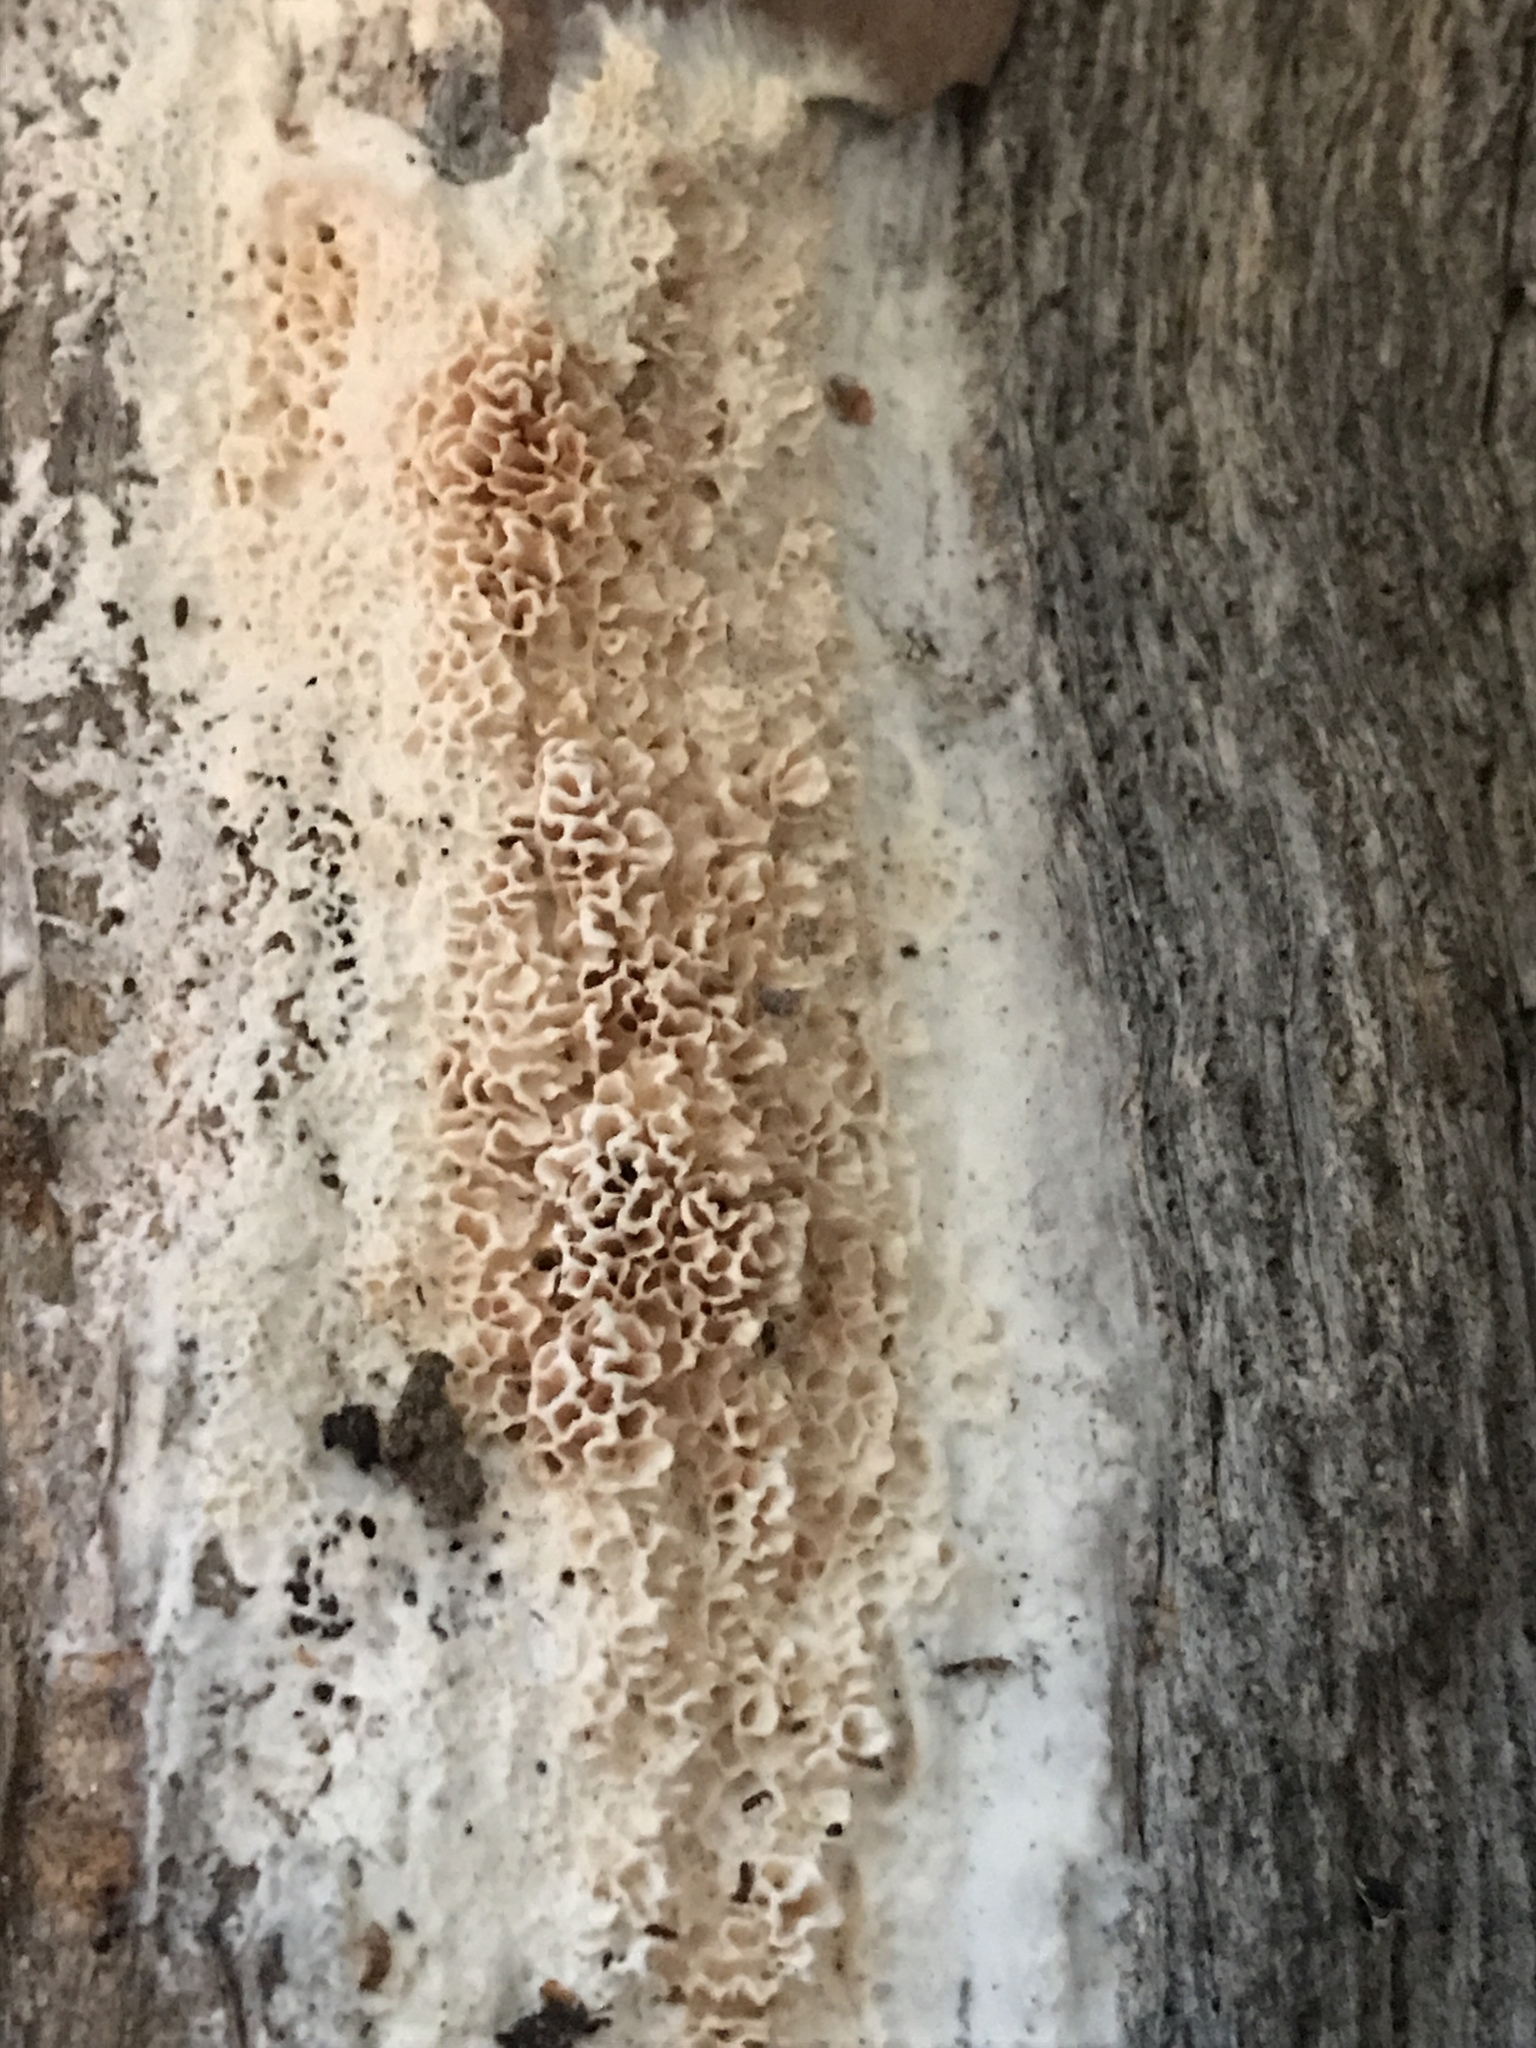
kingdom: Fungi
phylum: Basidiomycota
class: Agaricomycetes
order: Polyporales
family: Irpicaceae
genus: Irpex
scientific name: Irpex lacteus
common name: Milk-white toothed polypore
